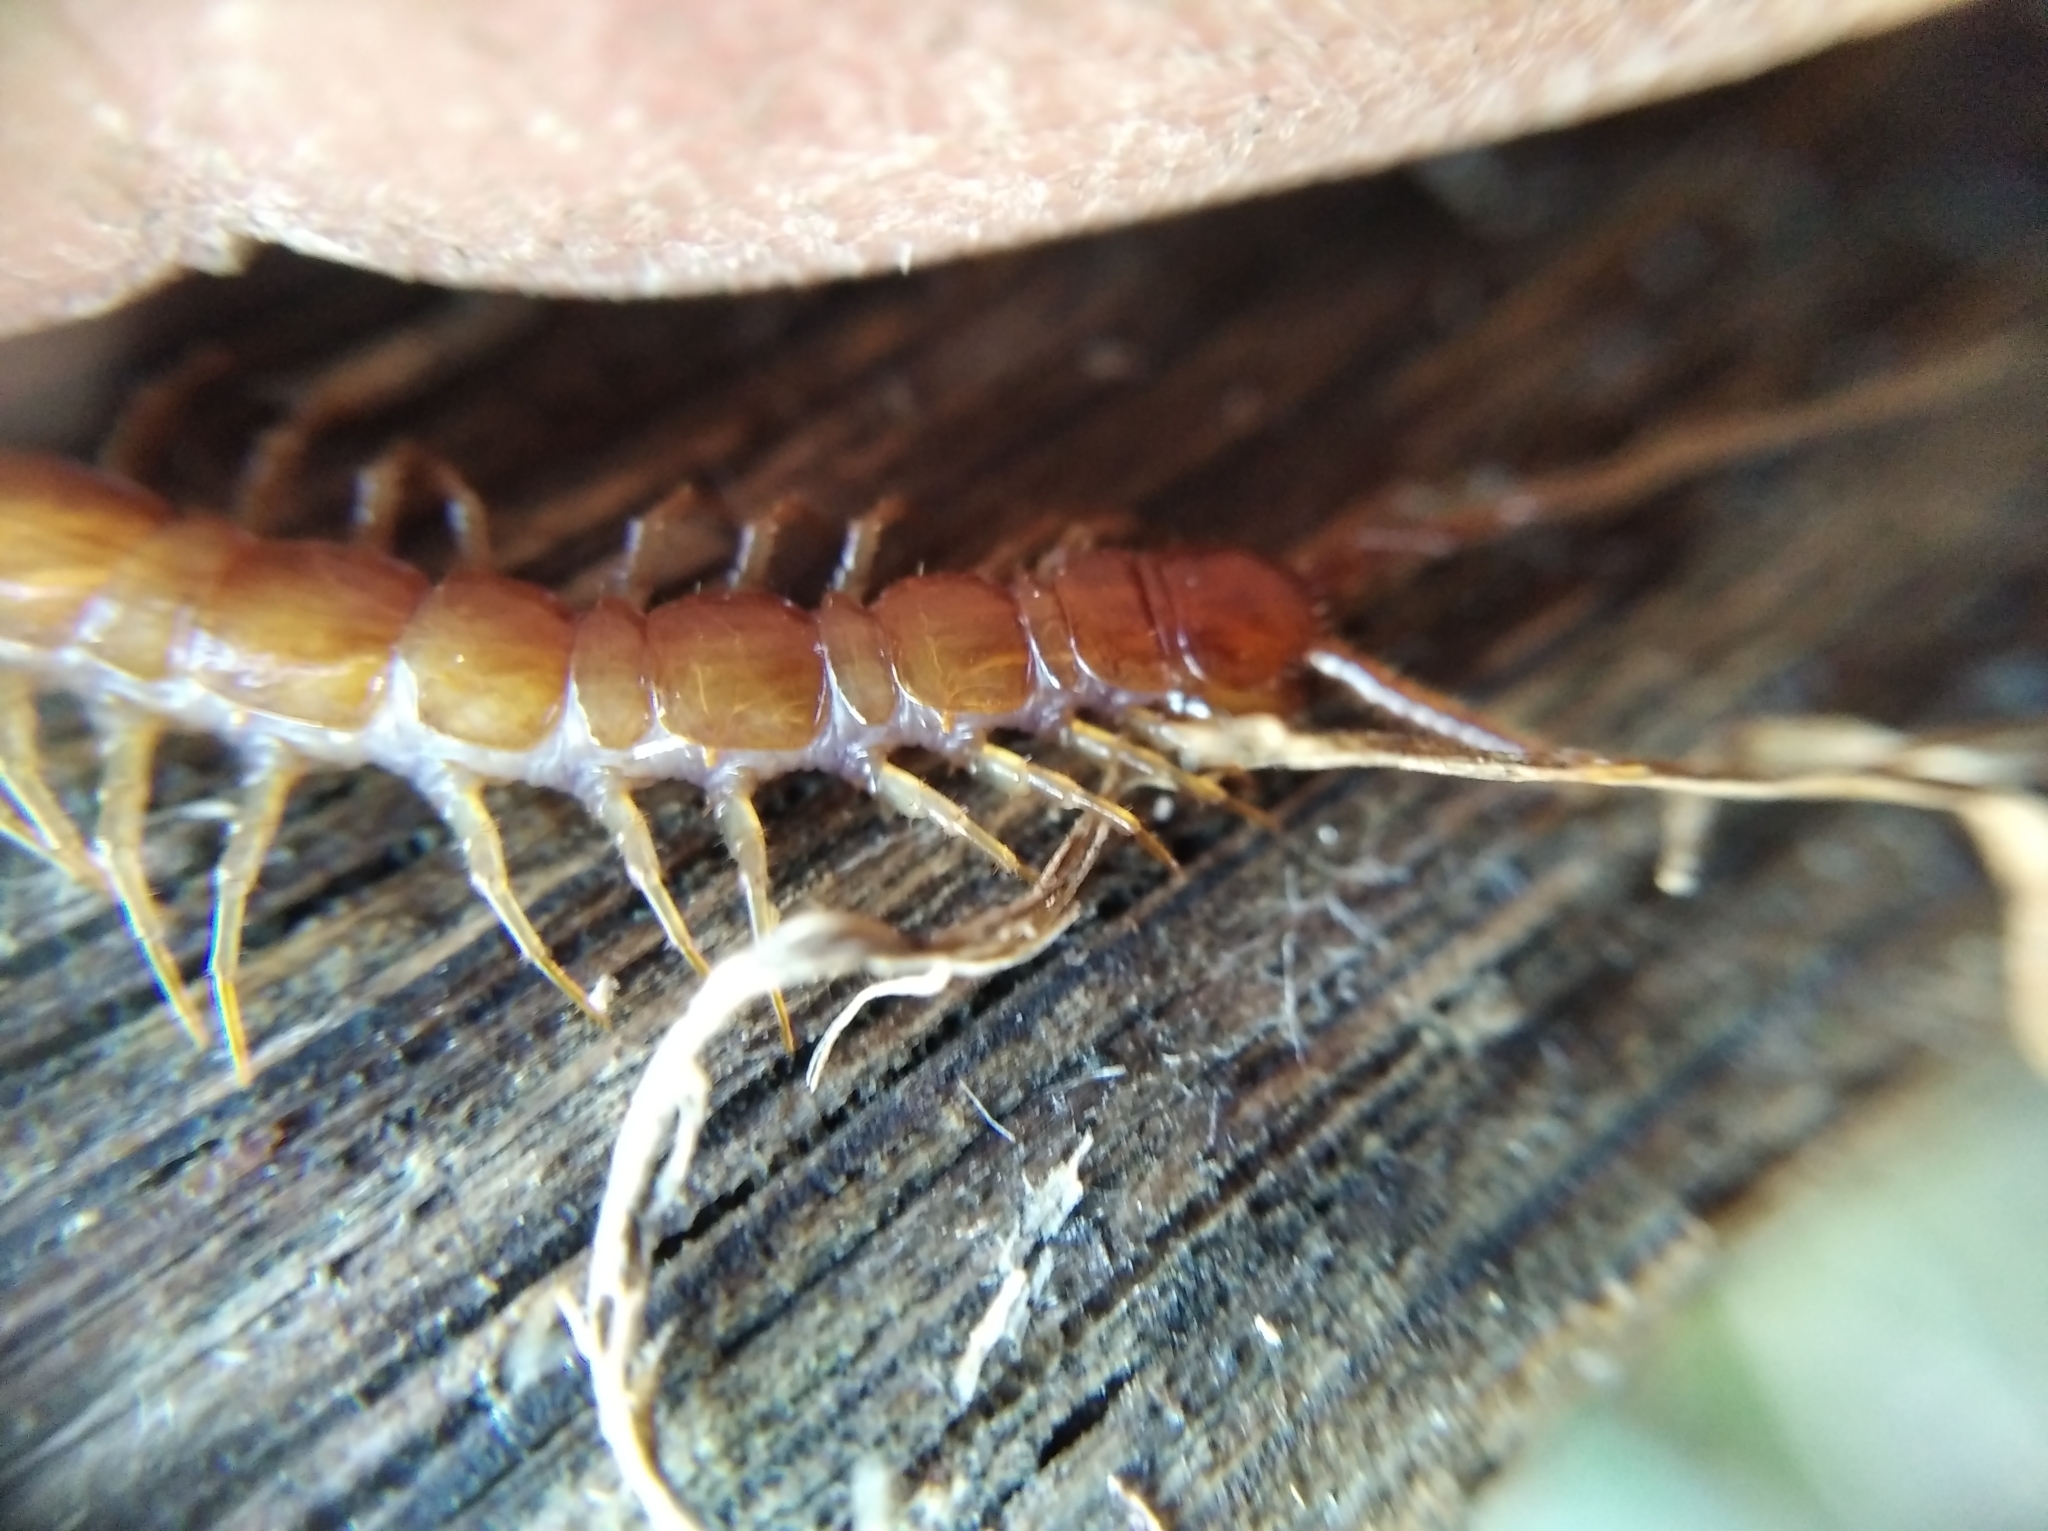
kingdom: Animalia
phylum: Arthropoda
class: Chilopoda
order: Lithobiomorpha
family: Lithobiidae
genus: Lithobius
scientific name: Lithobius forficatus
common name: Centipede
